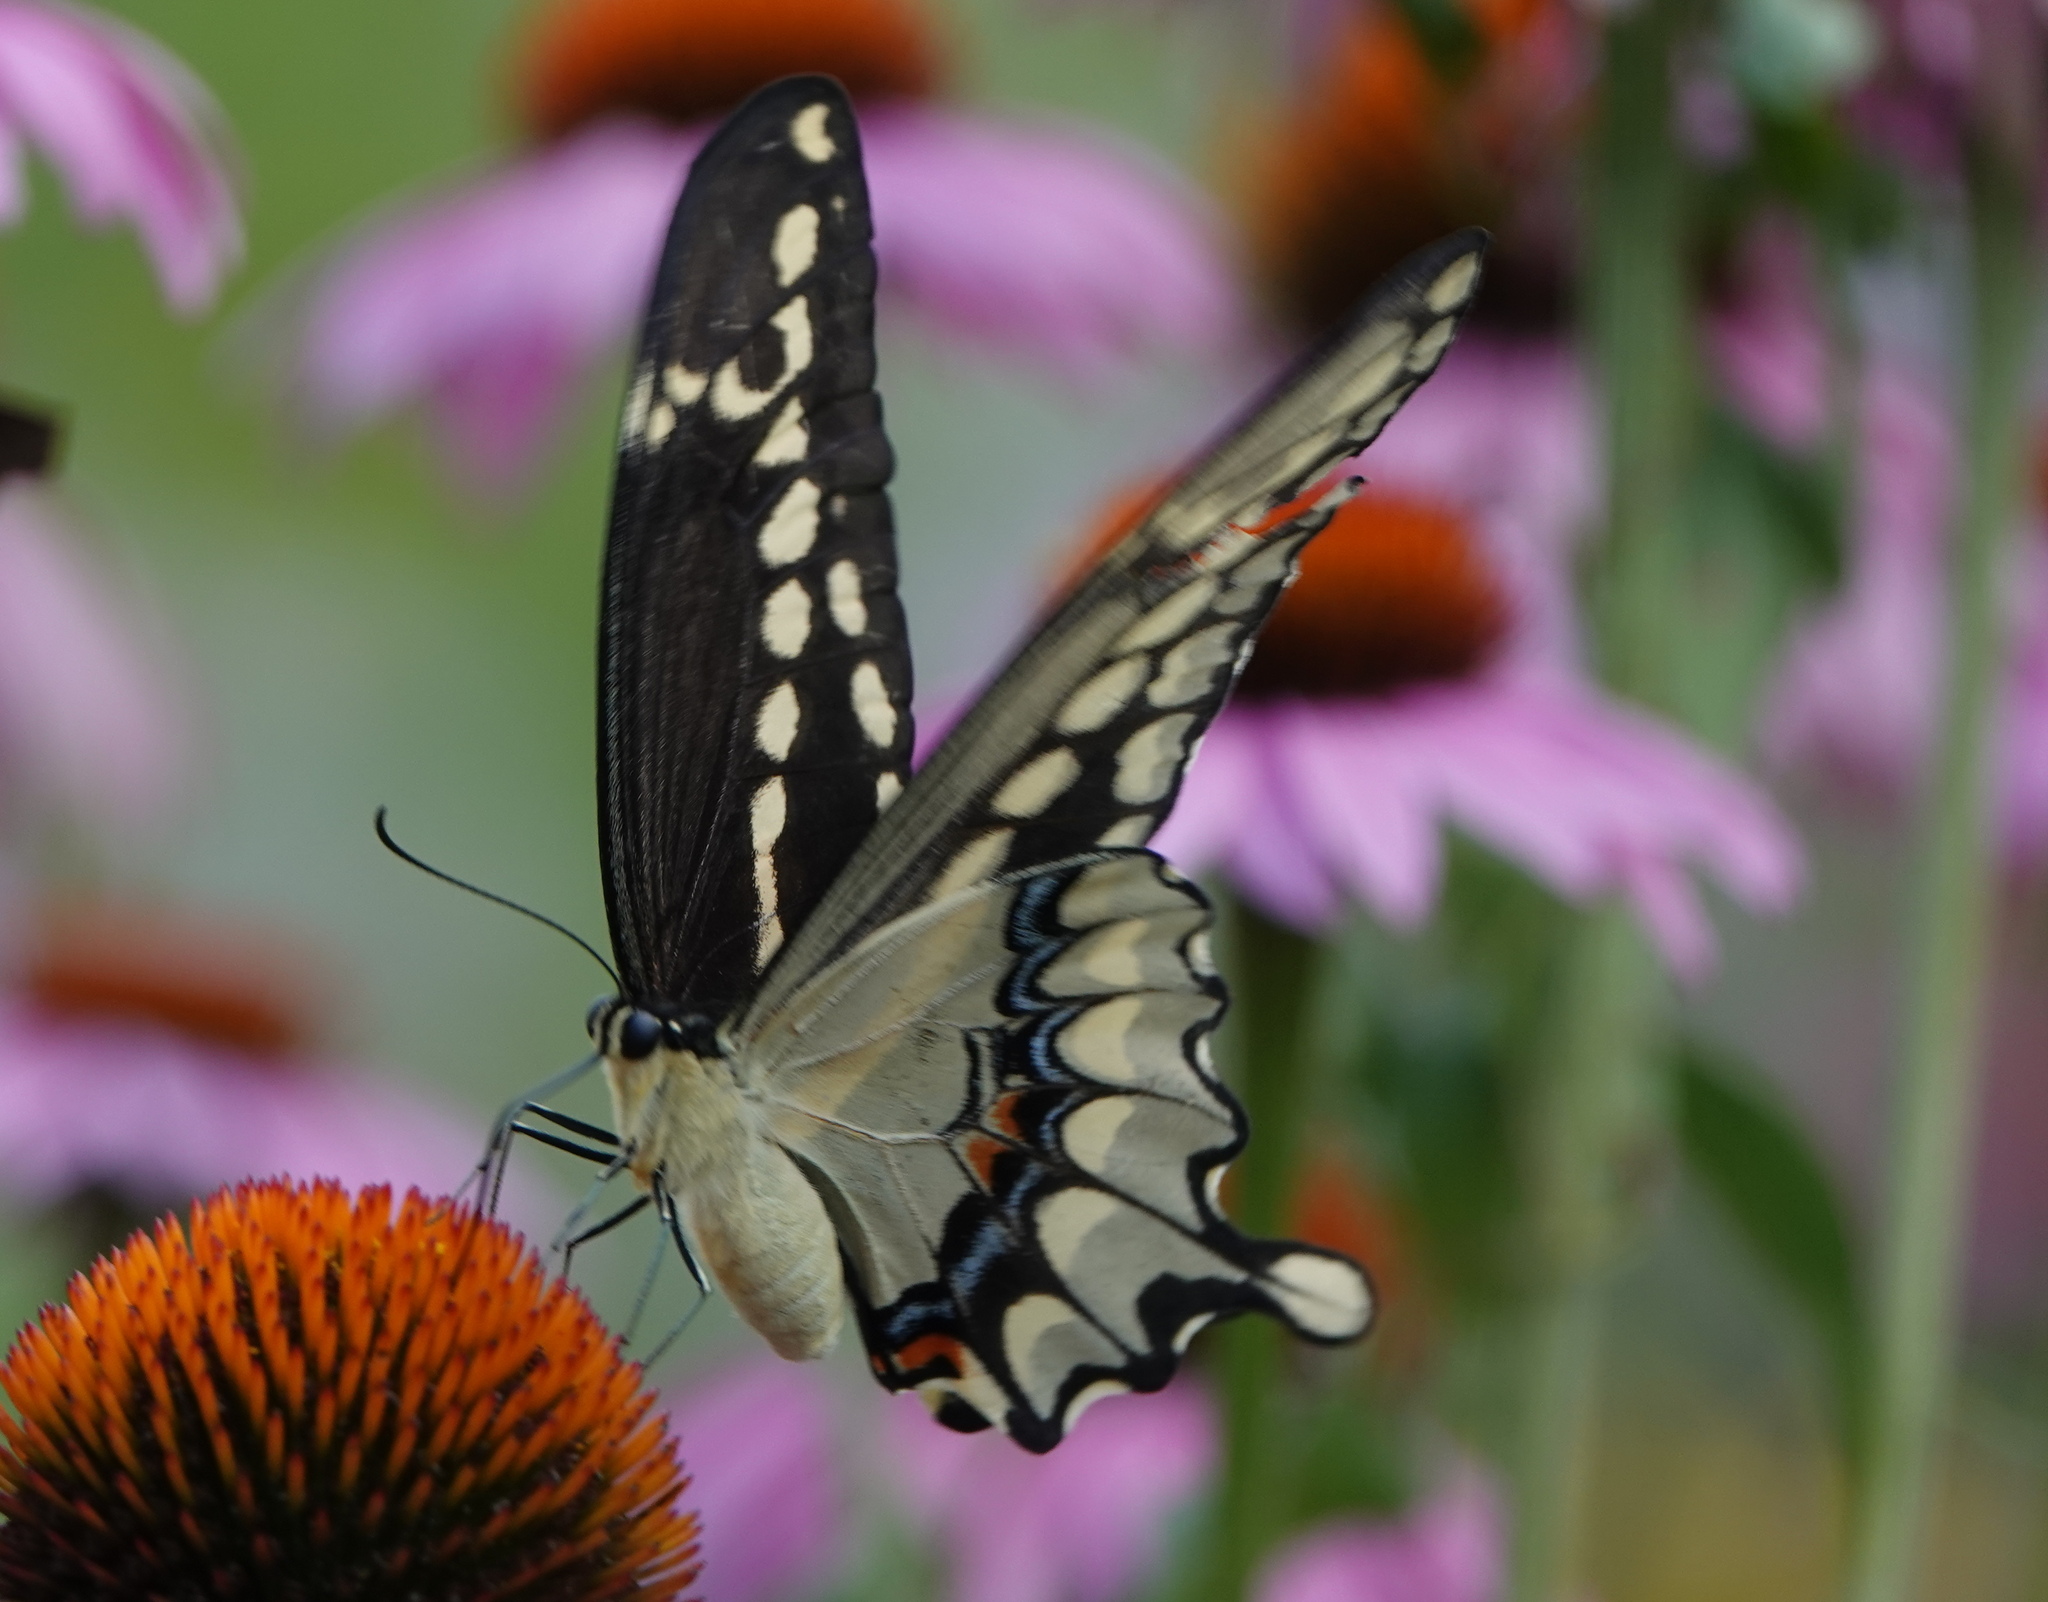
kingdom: Animalia
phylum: Arthropoda
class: Insecta
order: Lepidoptera
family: Papilionidae
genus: Papilio
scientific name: Papilio cresphontes
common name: Giant swallowtail
